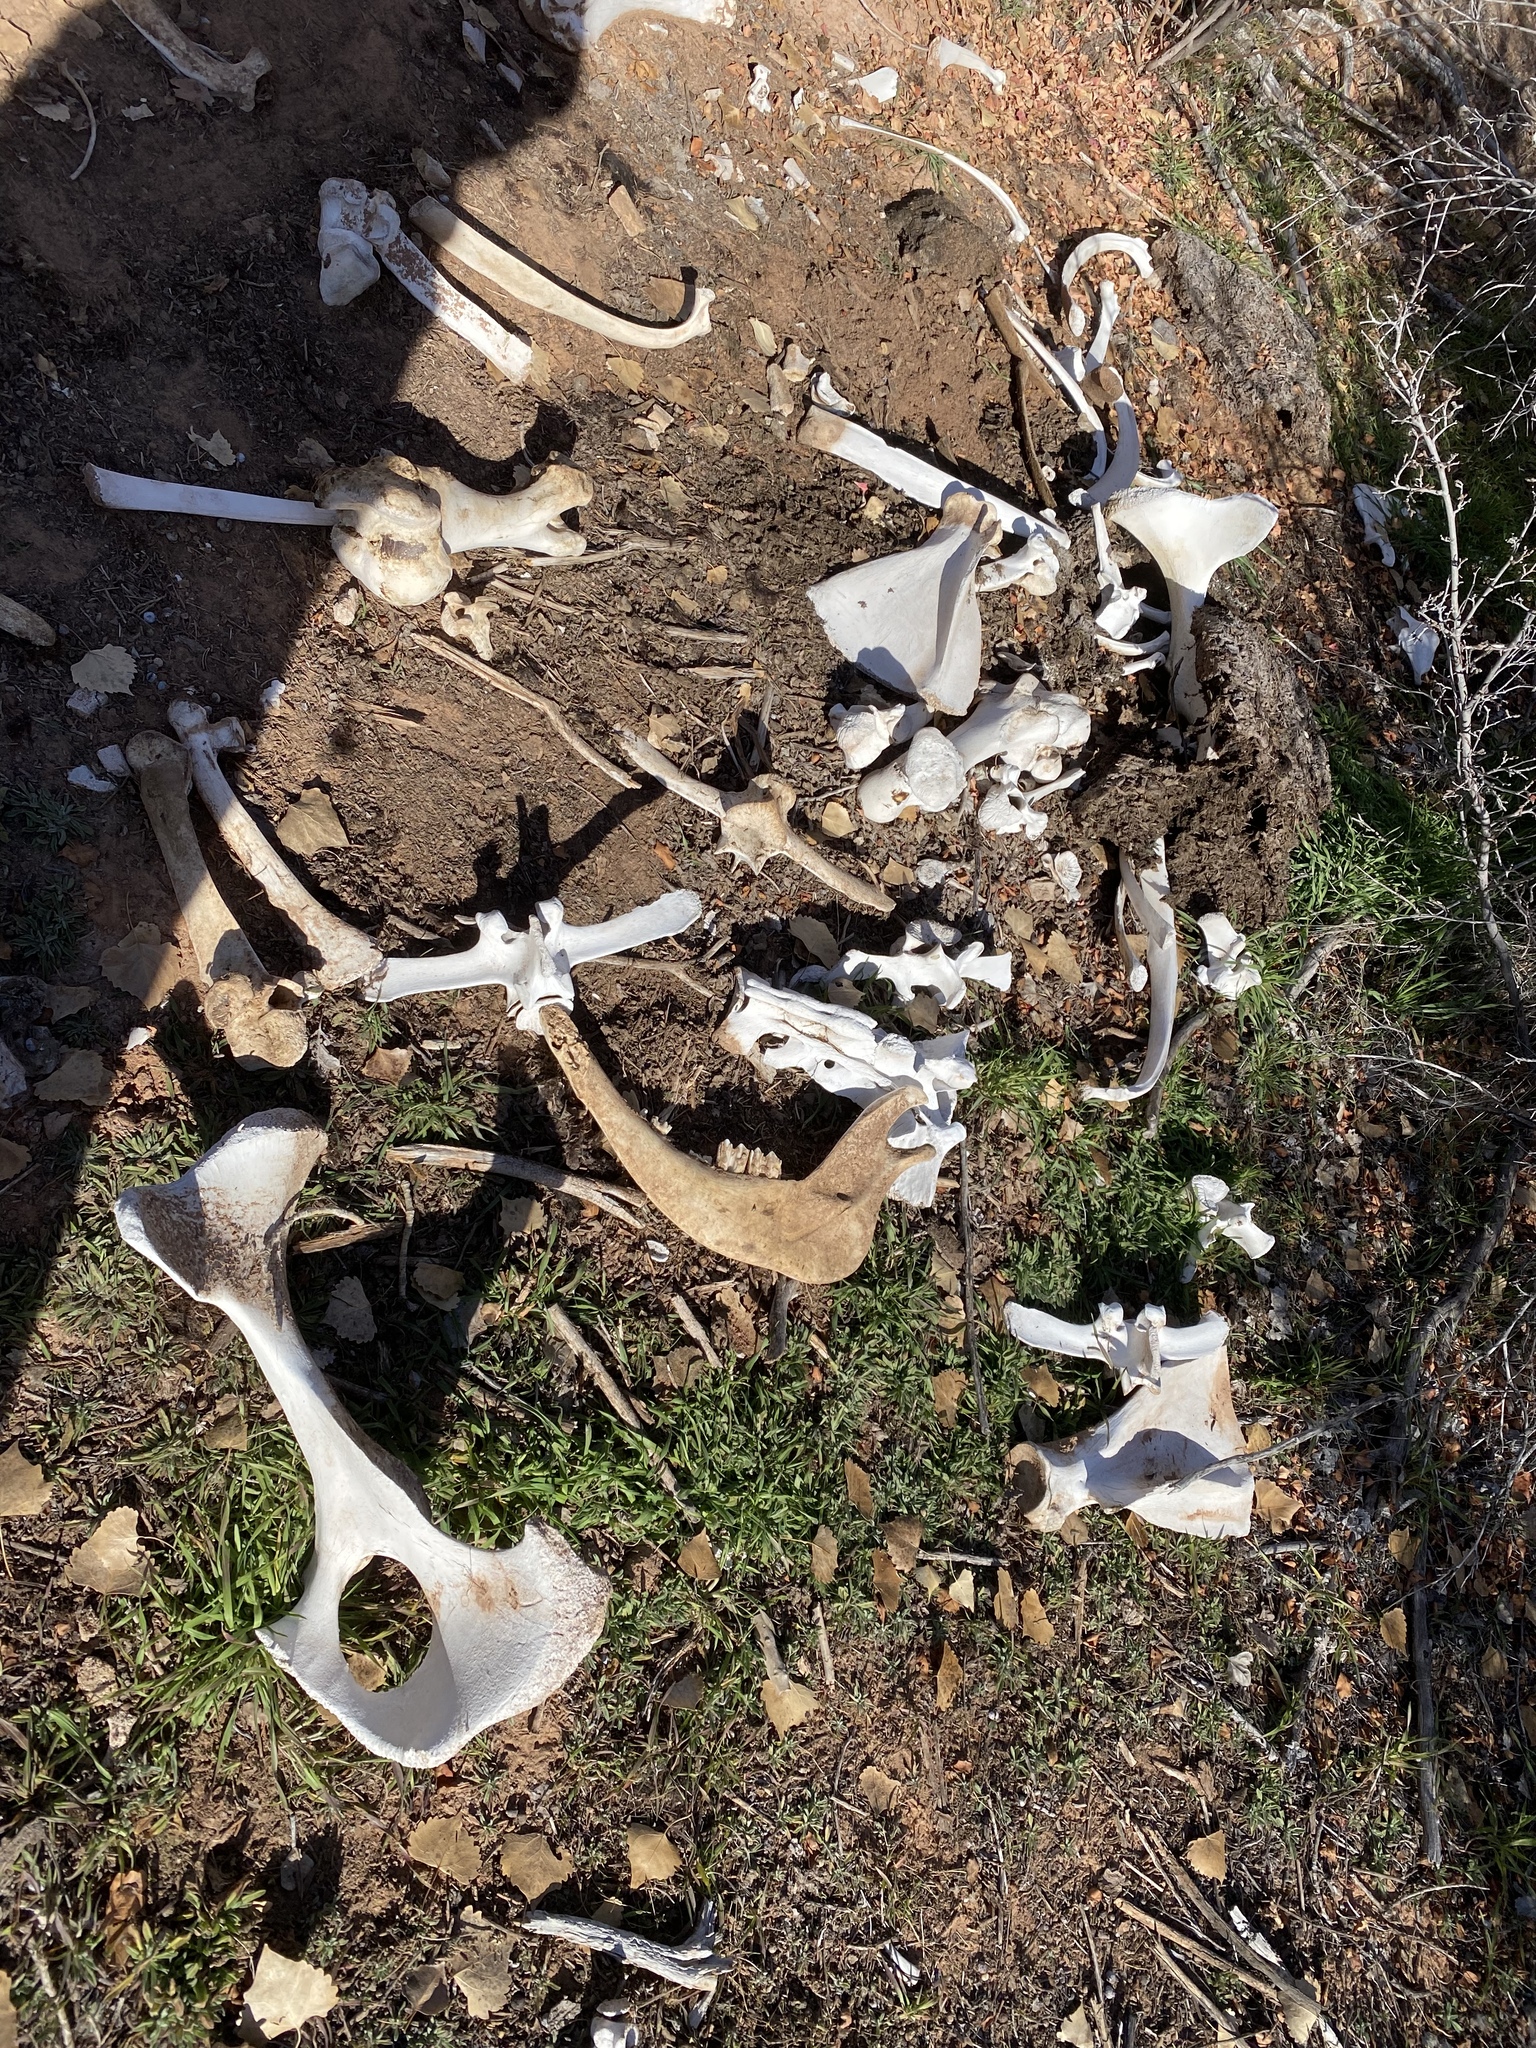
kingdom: Animalia
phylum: Chordata
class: Mammalia
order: Artiodactyla
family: Bovidae
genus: Bos
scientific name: Bos taurus
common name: Domesticated cattle
